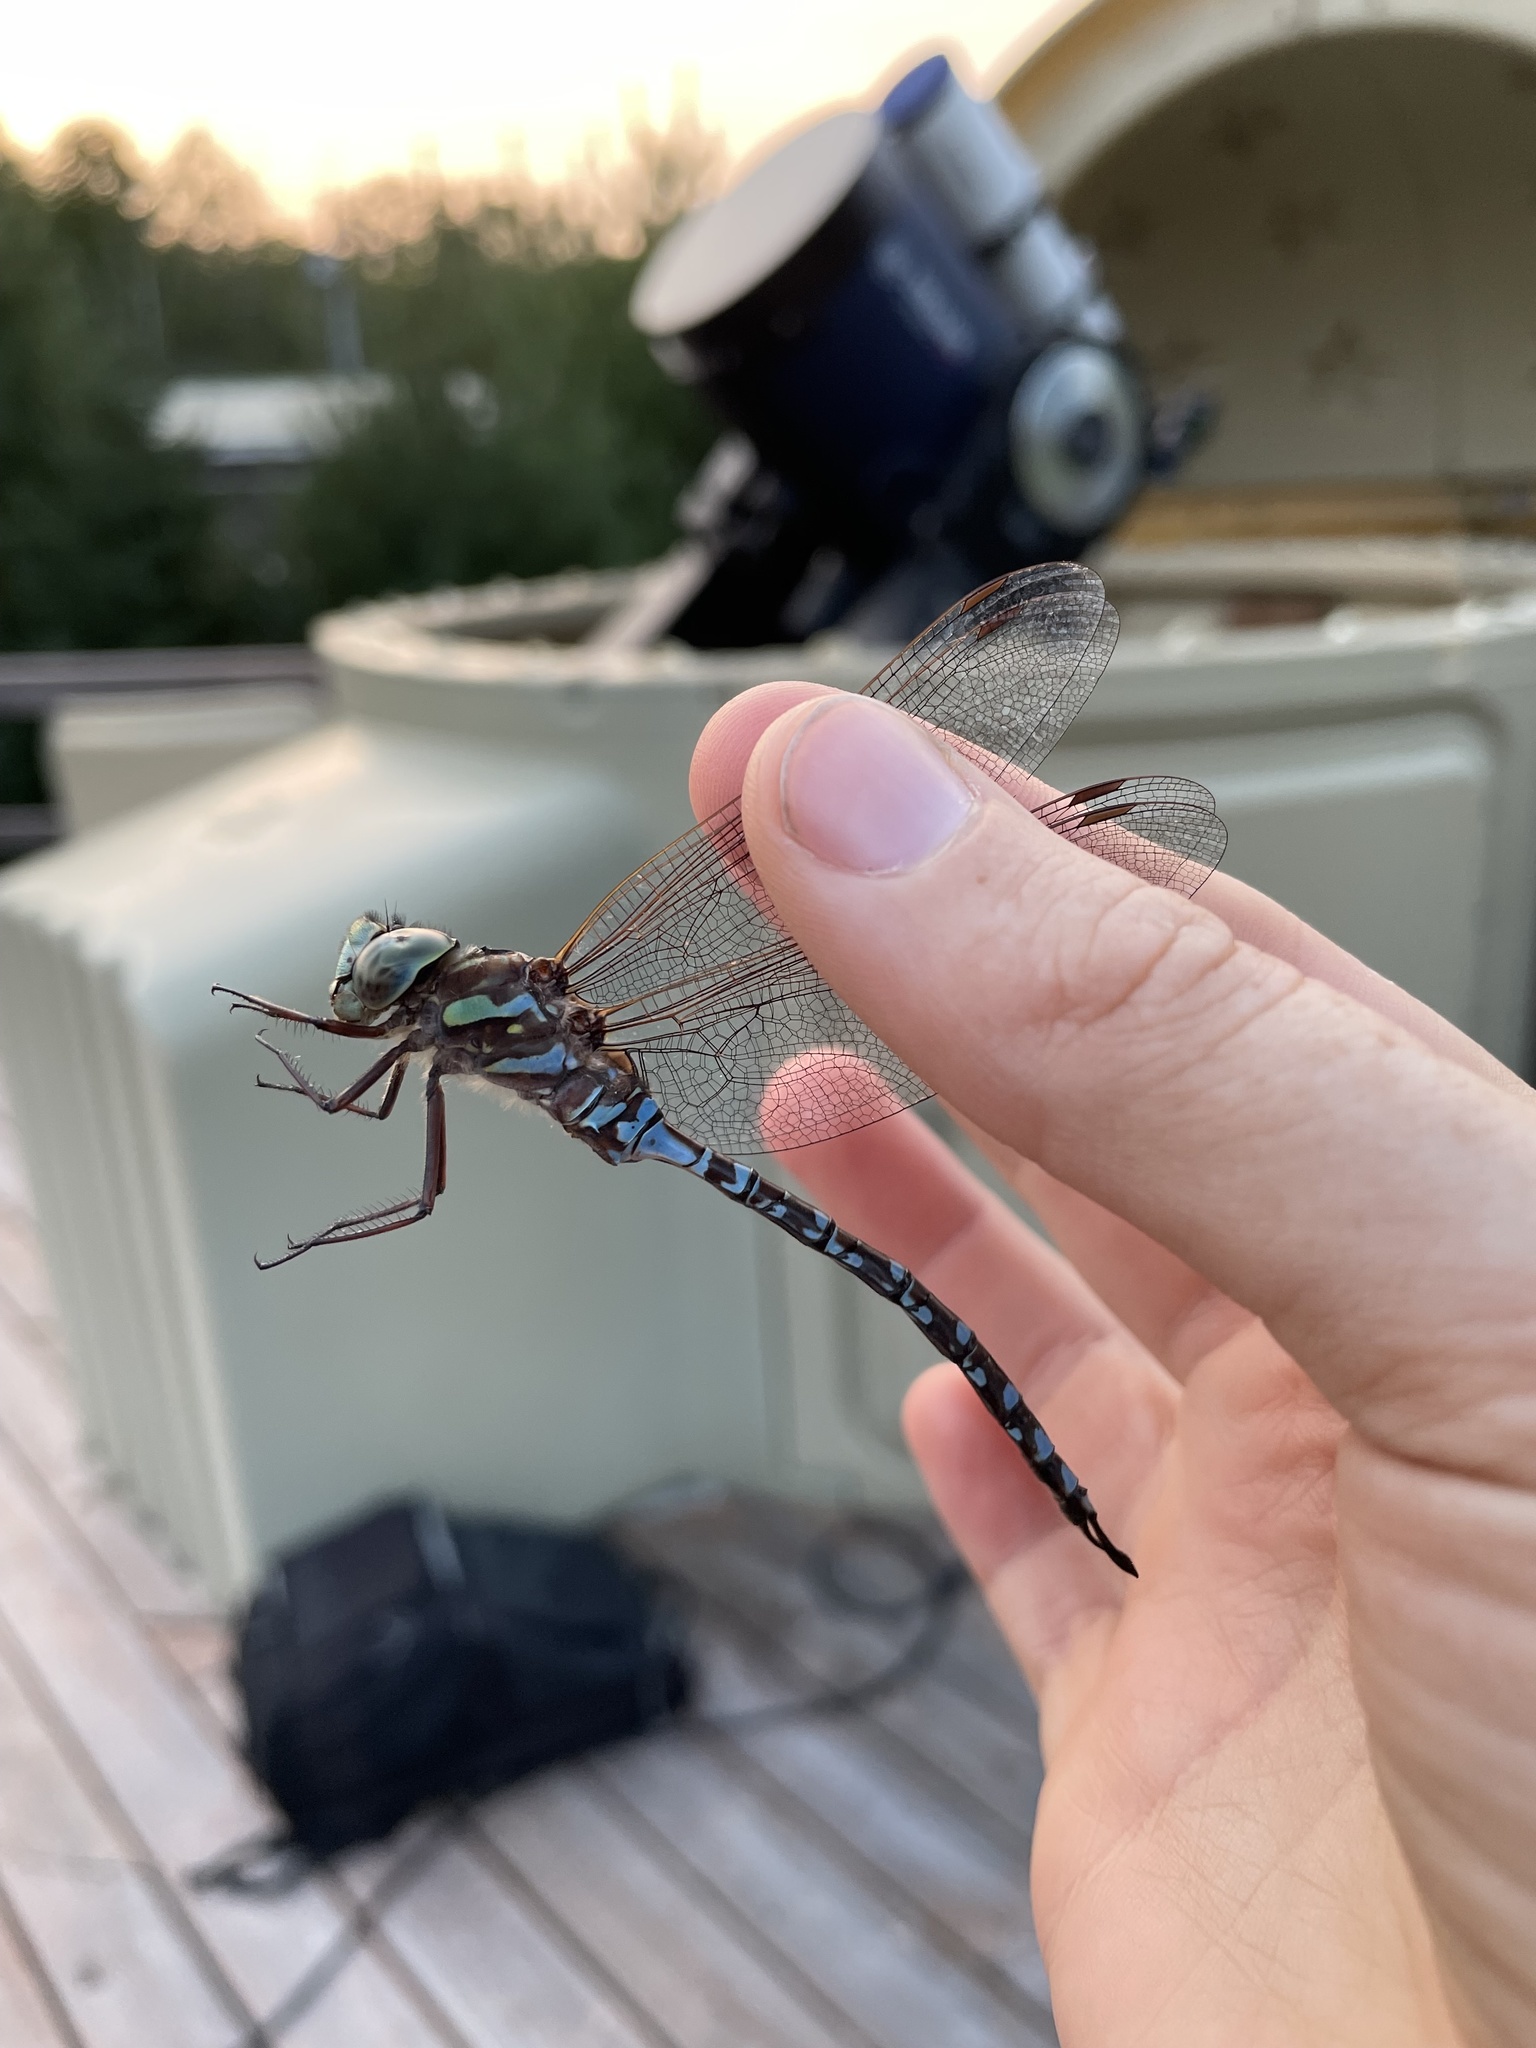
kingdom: Animalia
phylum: Arthropoda
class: Insecta
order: Odonata
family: Aeshnidae
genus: Aeshna
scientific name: Aeshna canadensis
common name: Canada darner
